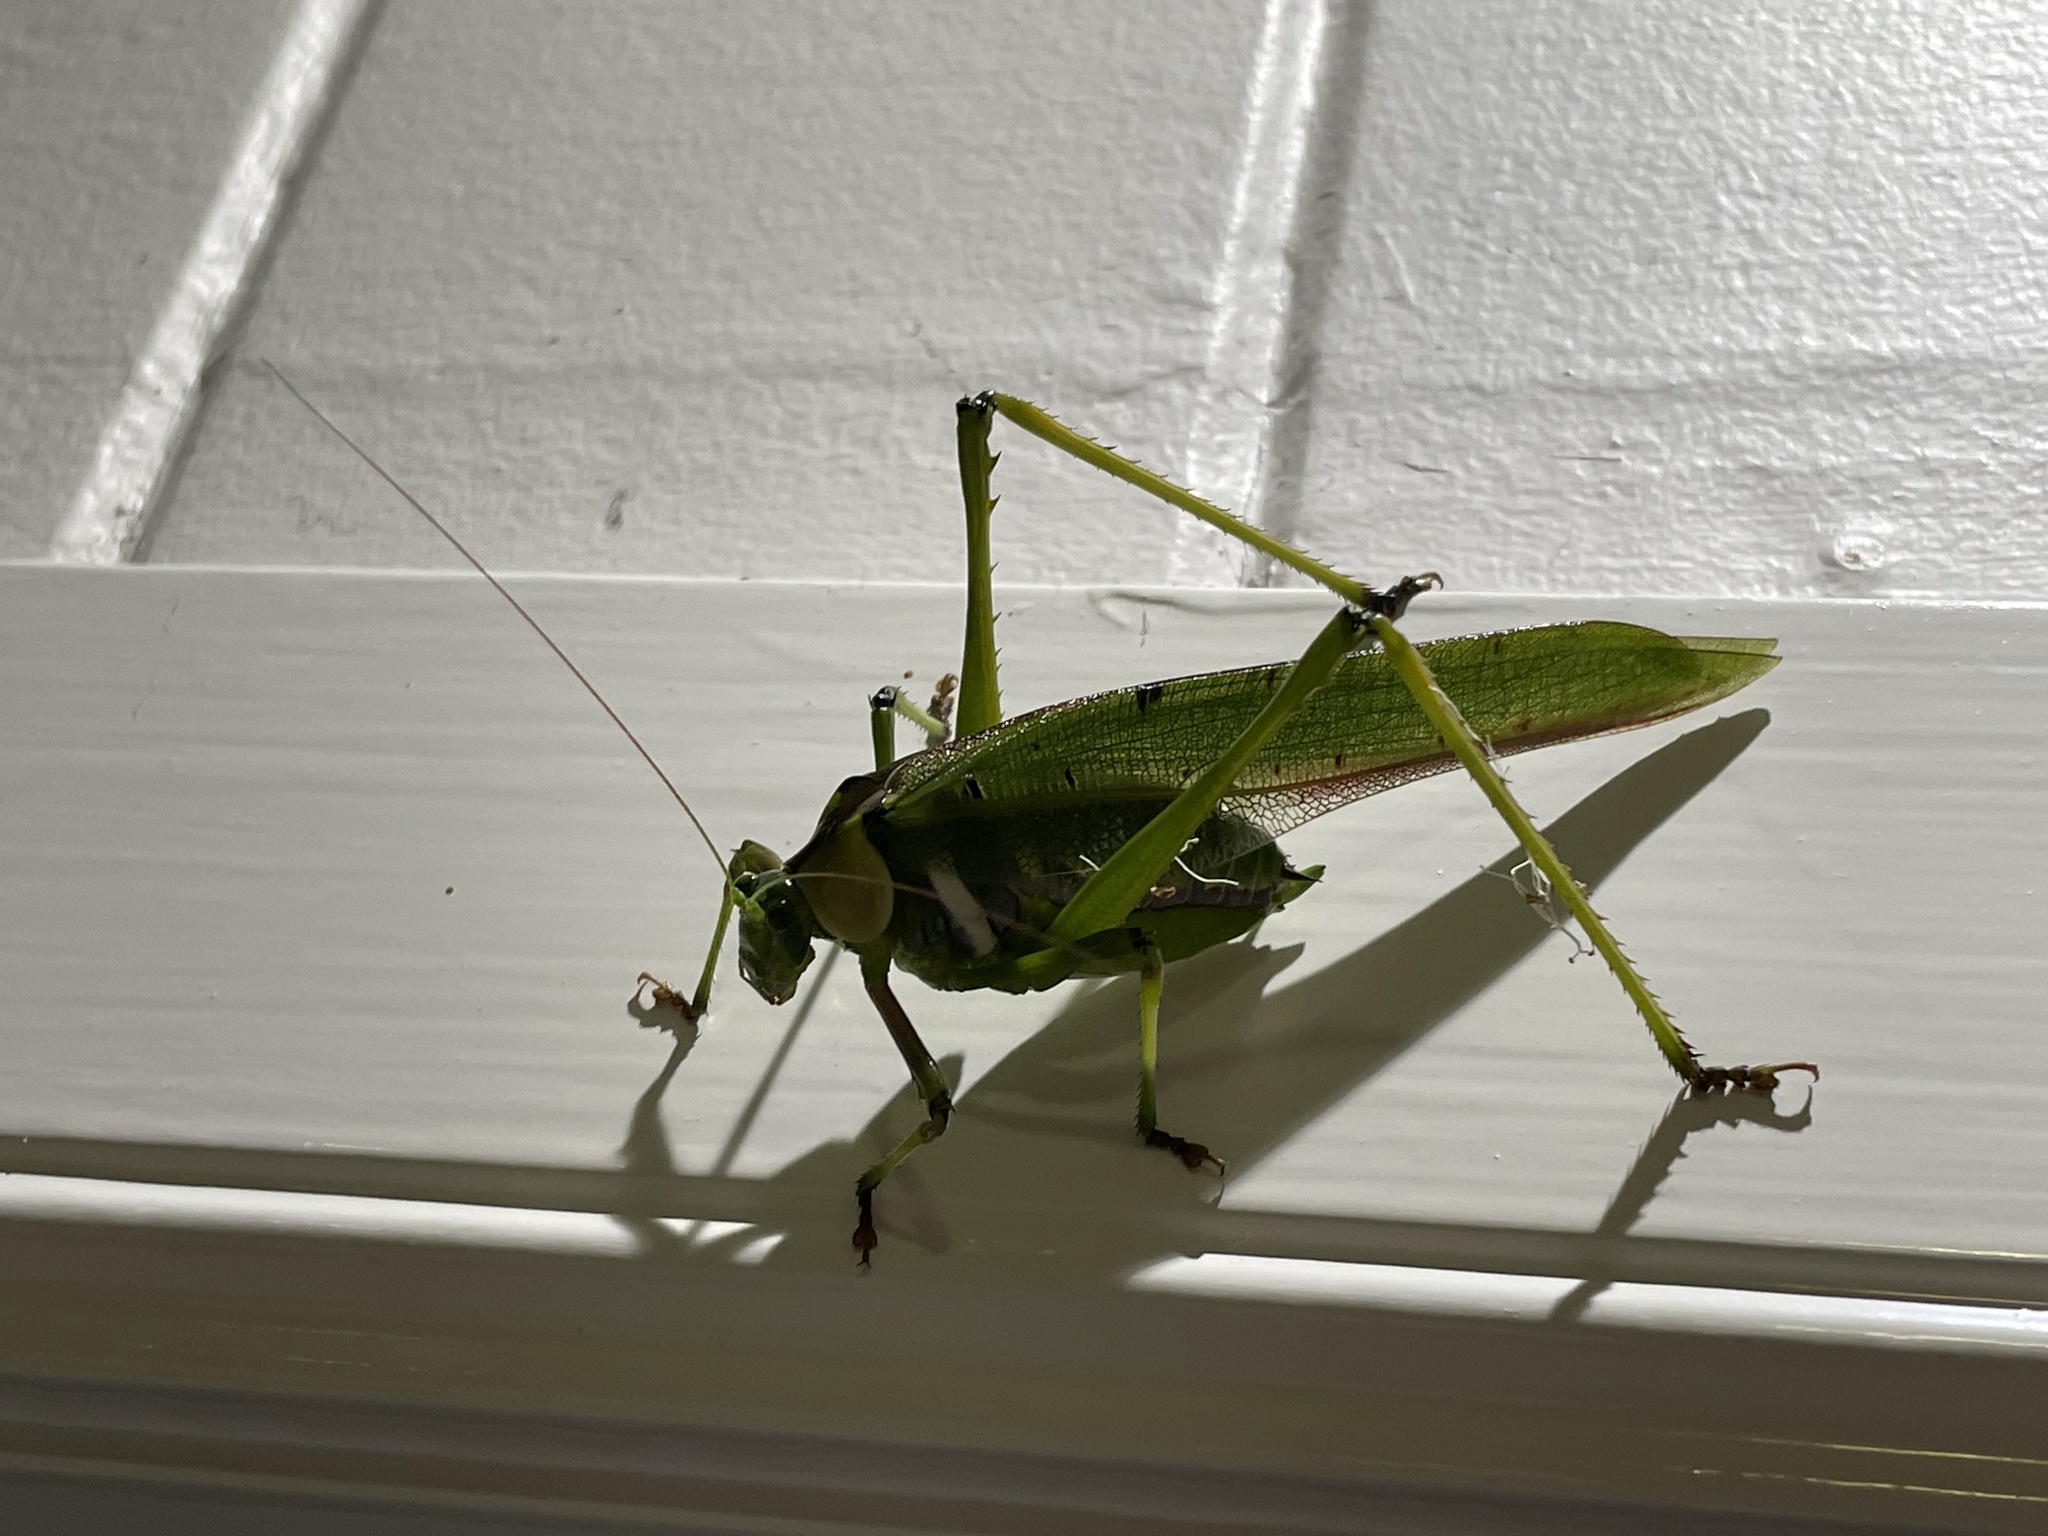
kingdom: Animalia
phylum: Arthropoda
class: Insecta
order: Orthoptera
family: Tettigoniidae
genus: Ephippitytha
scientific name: Ephippitytha trigintiduoguttata
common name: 32-spotted katydid
